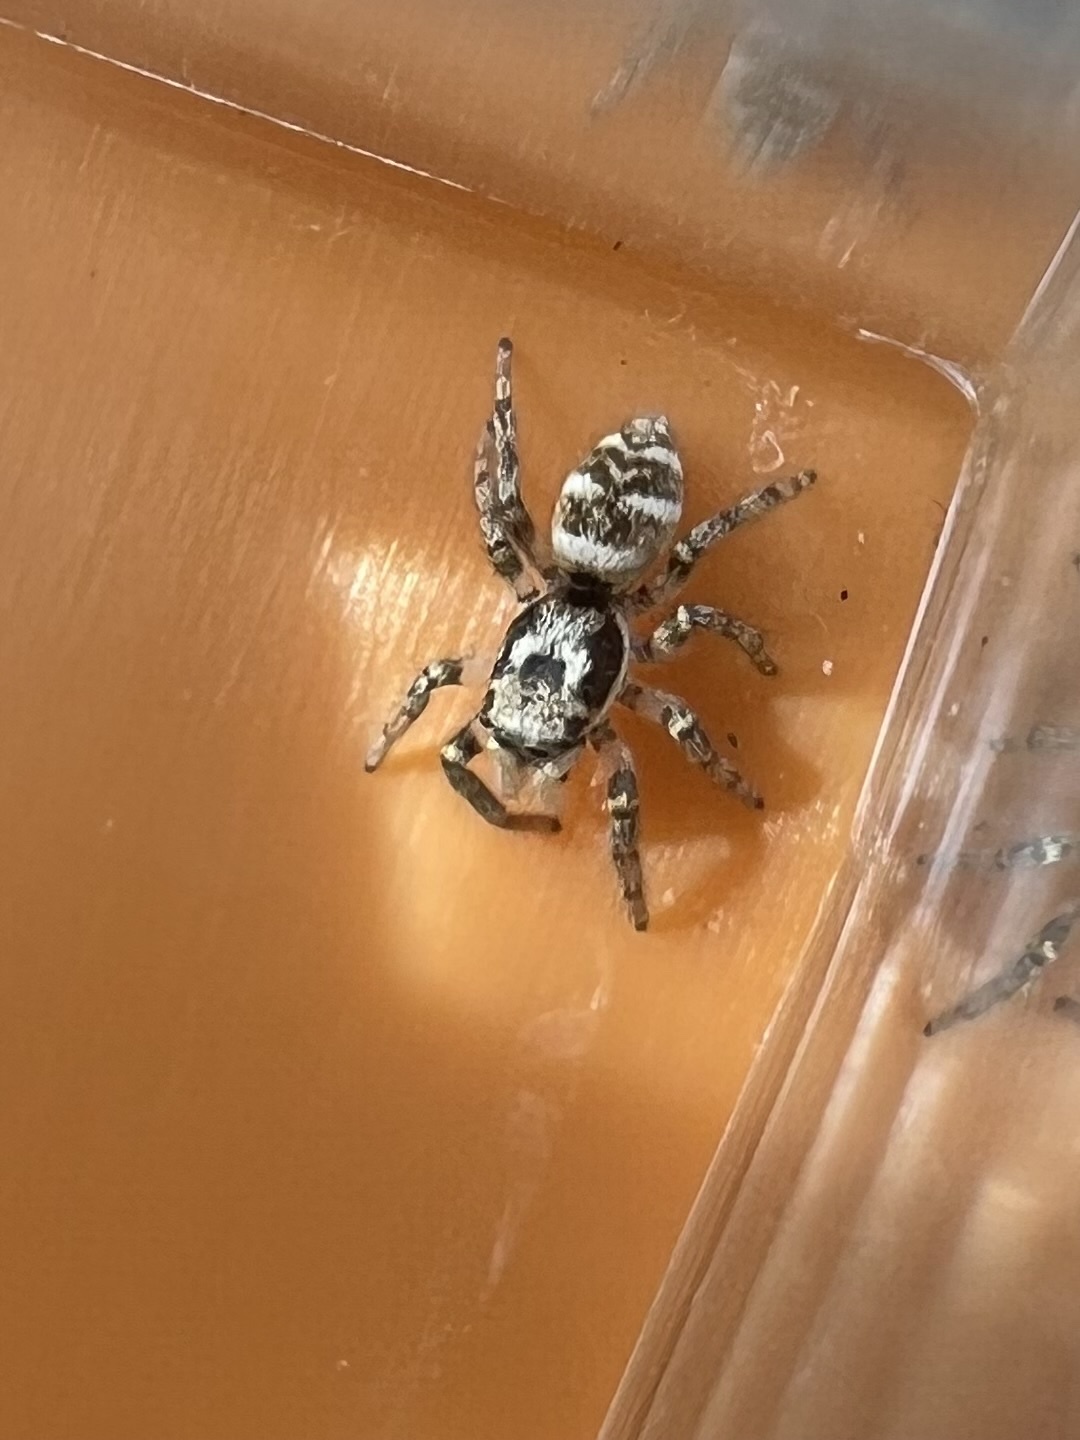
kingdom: Animalia
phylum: Arthropoda
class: Arachnida
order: Araneae
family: Salticidae
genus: Salticus
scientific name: Salticus scenicus
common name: Zebra jumper
